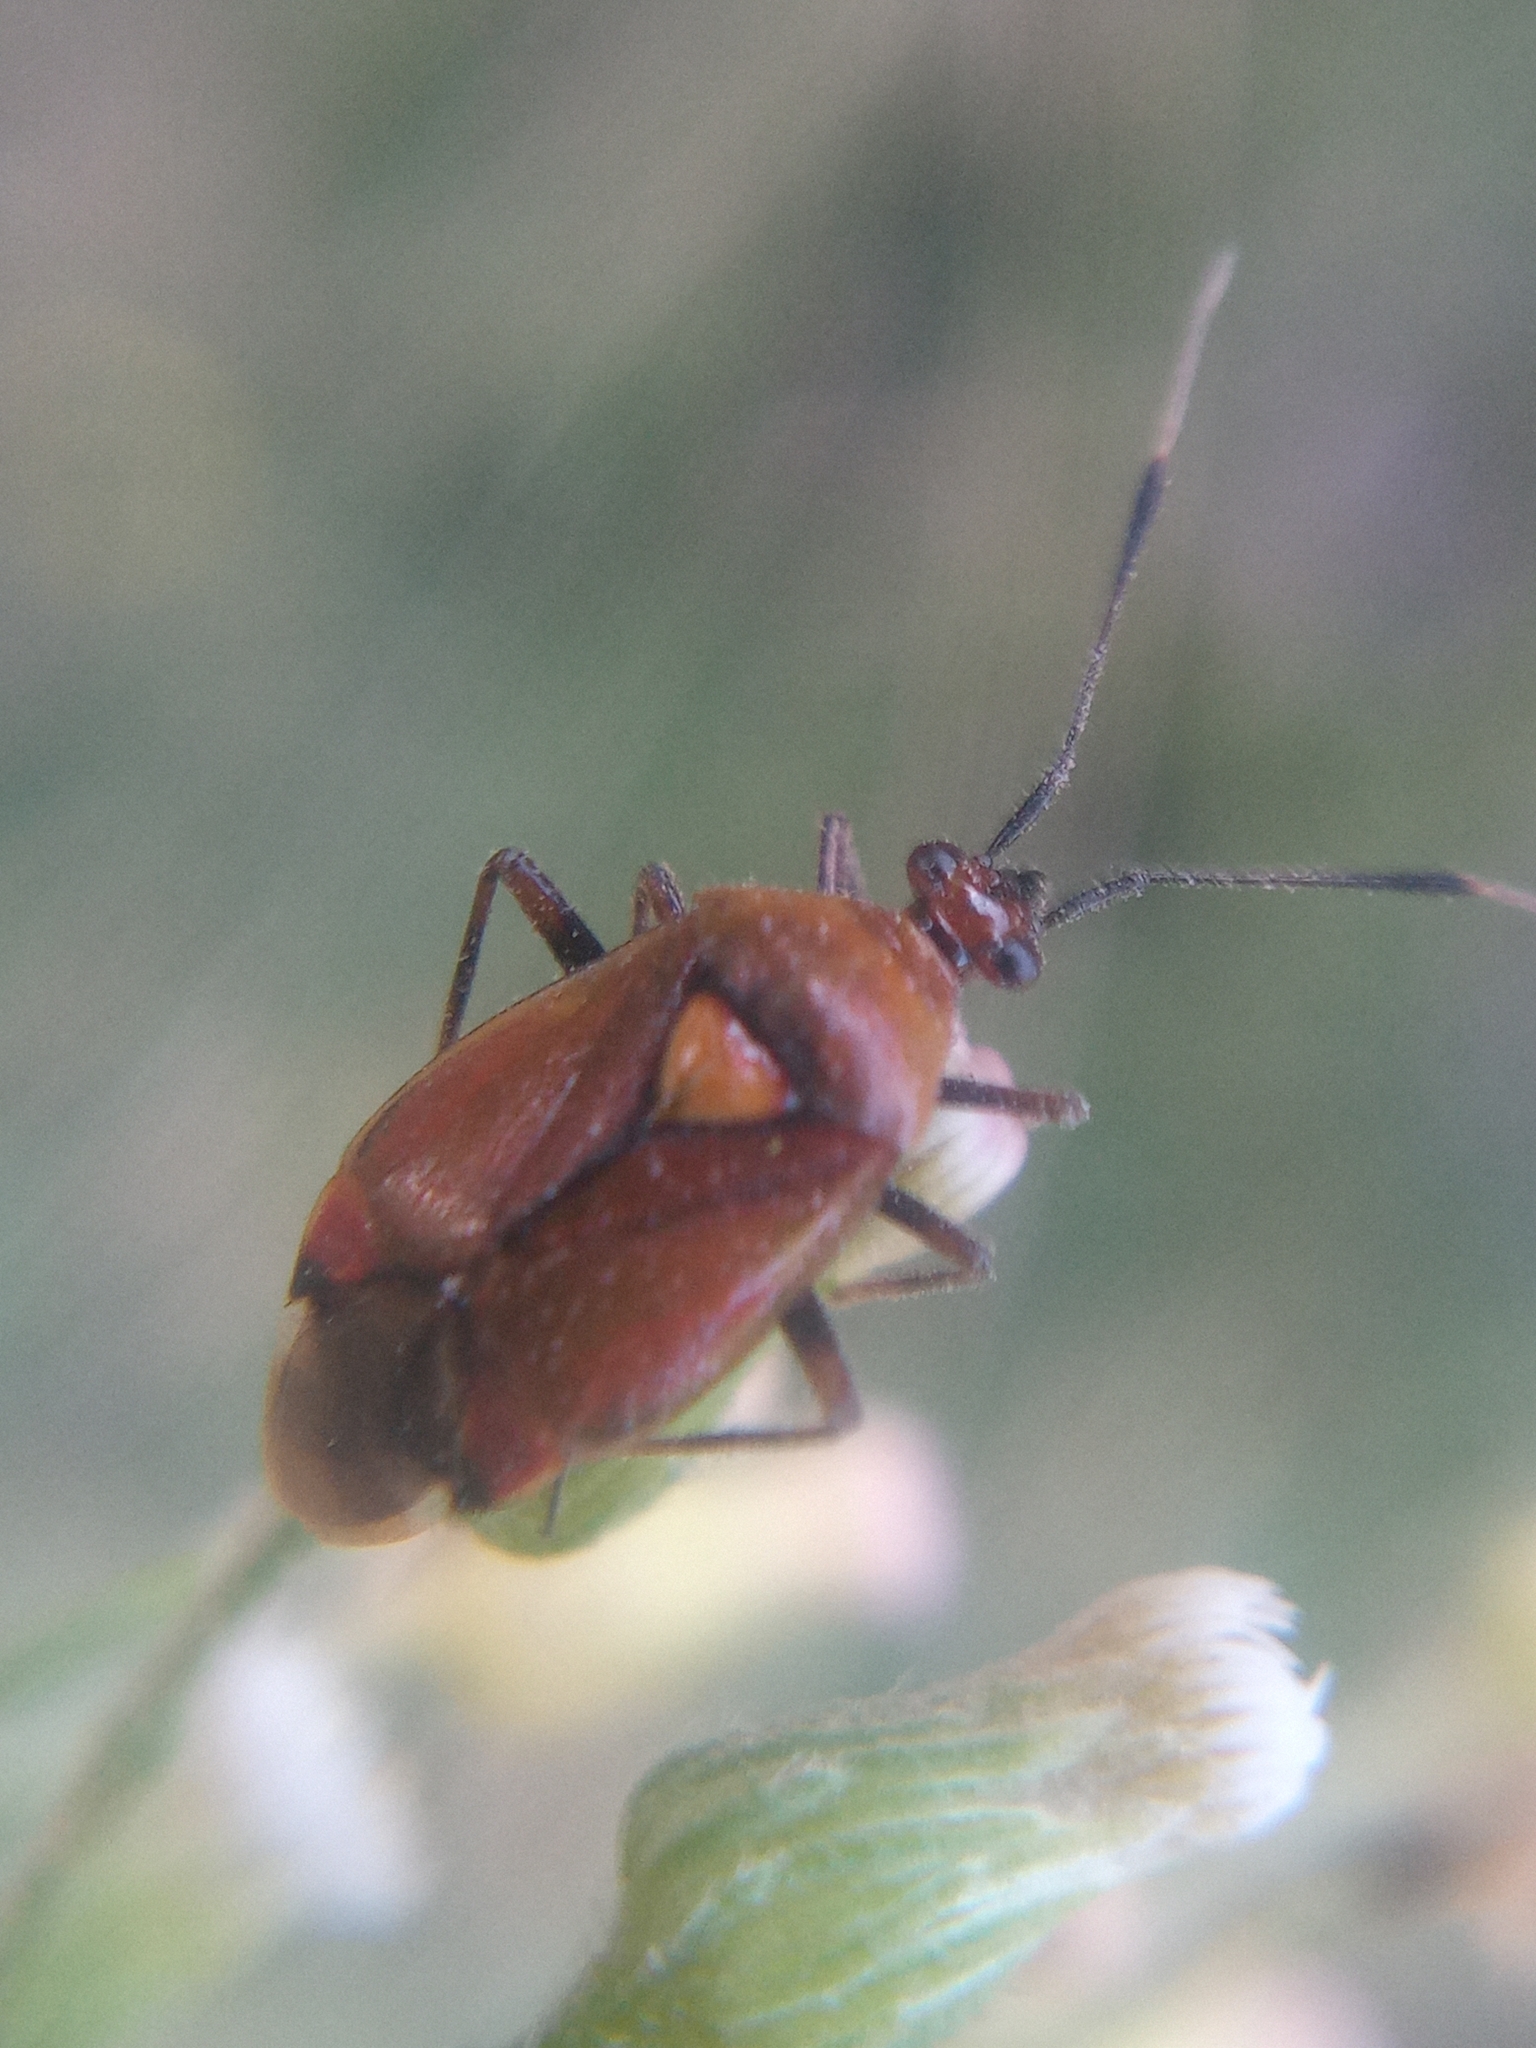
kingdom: Animalia
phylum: Arthropoda
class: Insecta
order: Hemiptera
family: Miridae
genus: Deraeocoris
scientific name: Deraeocoris ruber
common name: Plant bug
